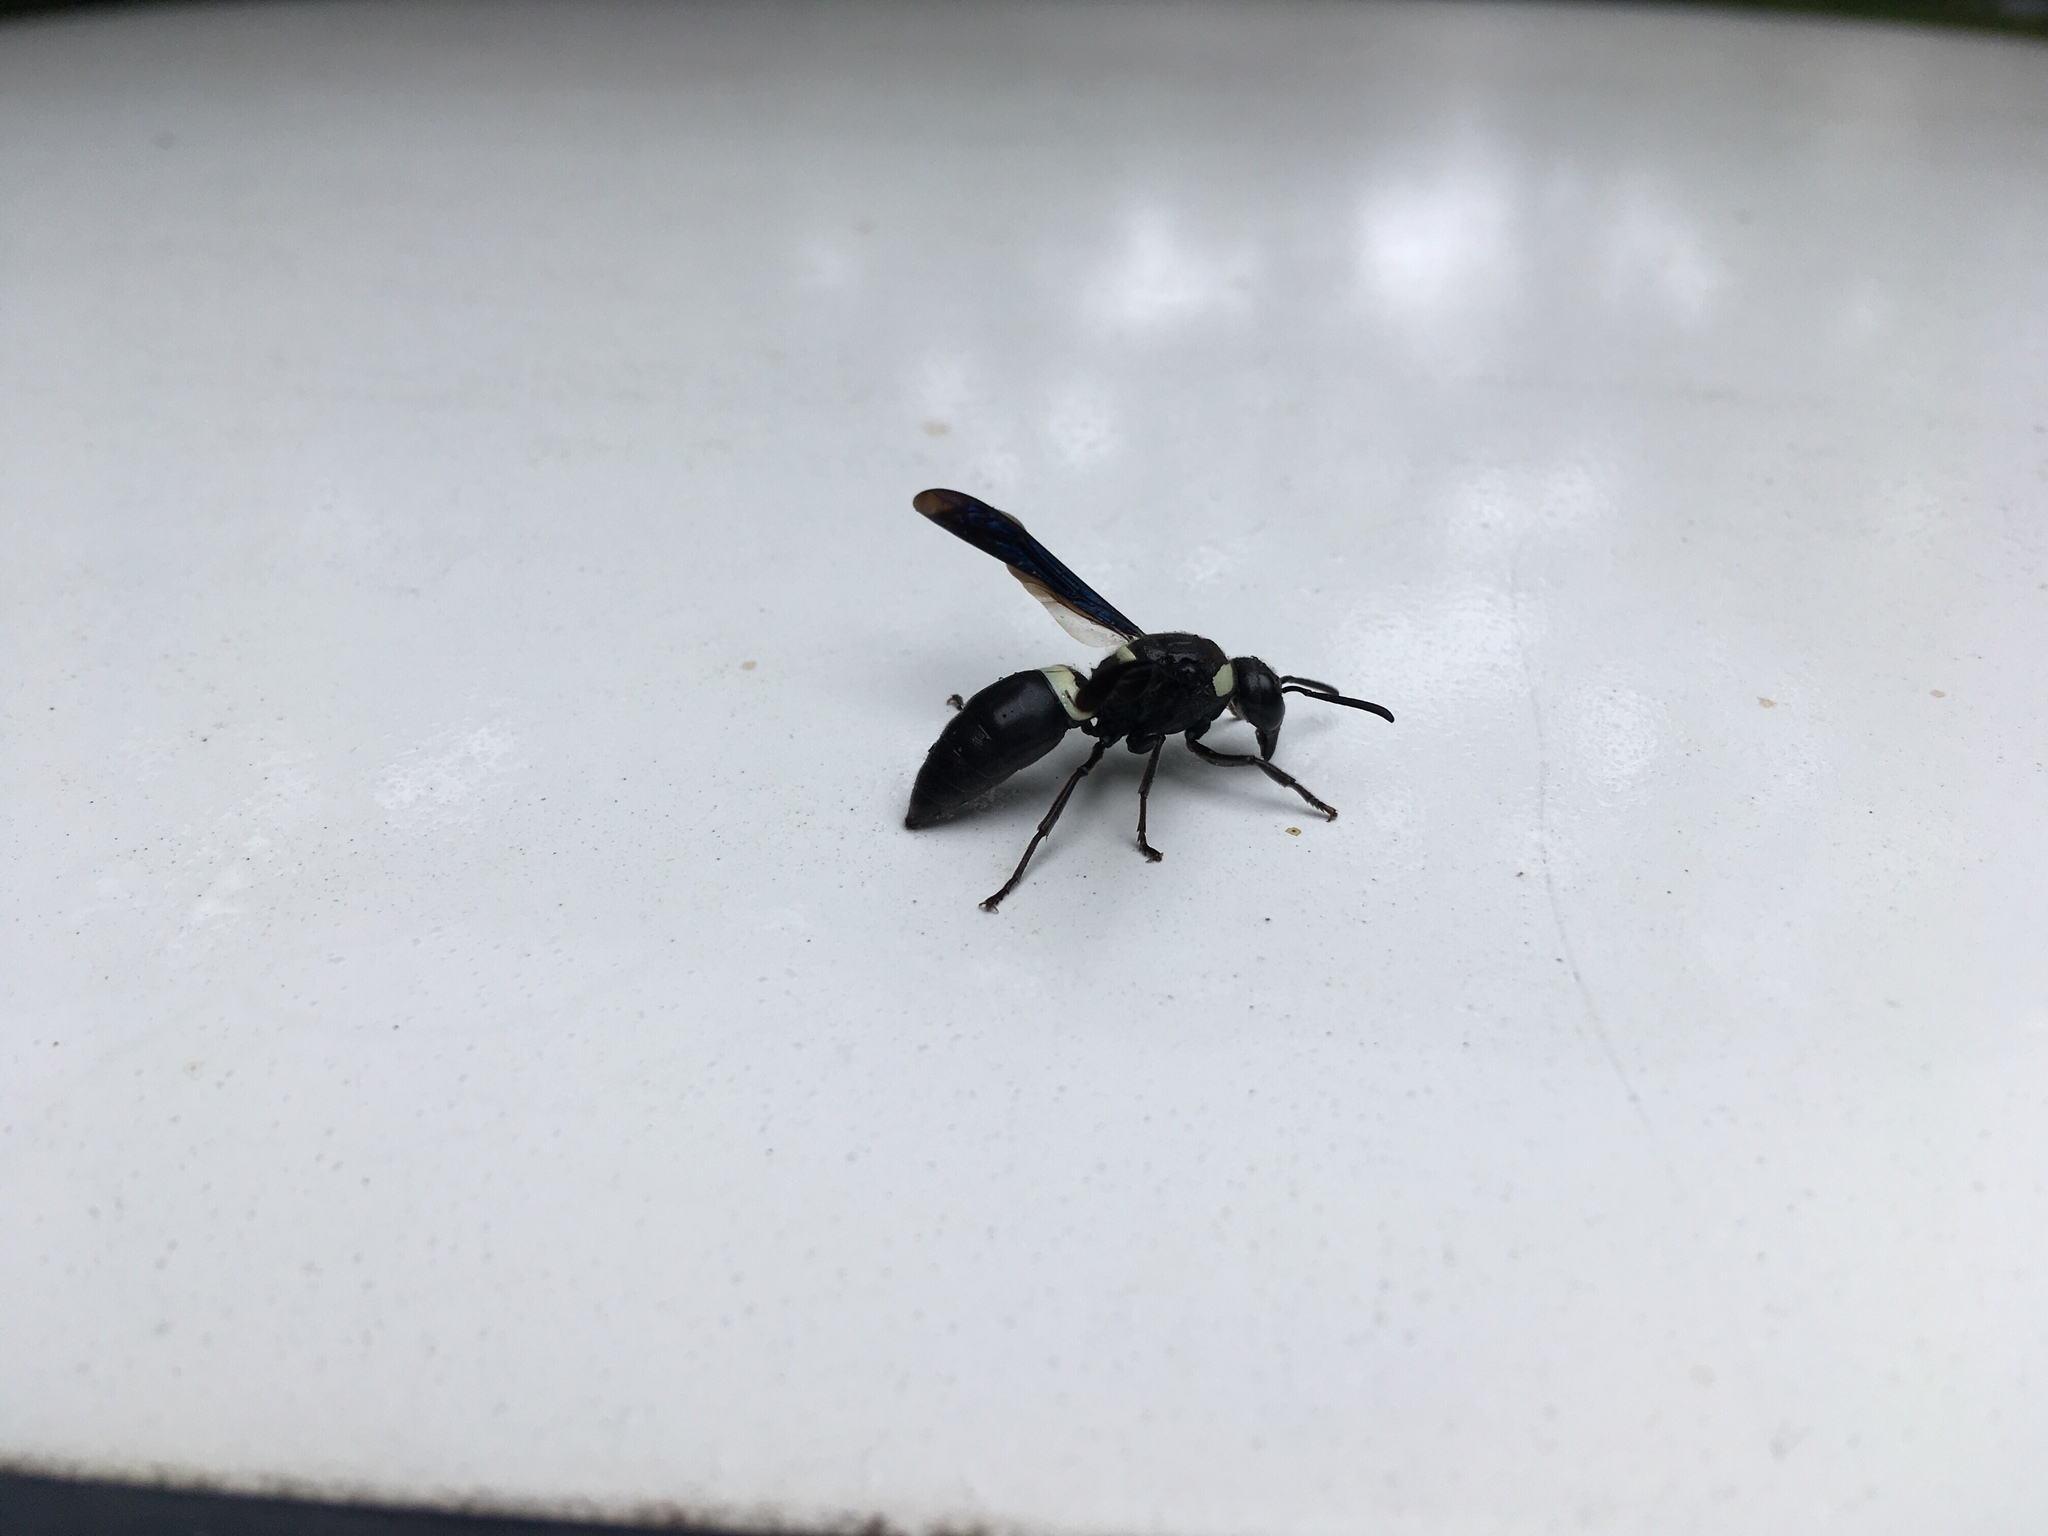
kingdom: Animalia
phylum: Arthropoda
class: Insecta
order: Hymenoptera
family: Eumenidae
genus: Monobia
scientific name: Monobia quadridens
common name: Four-toothed mason wasp
